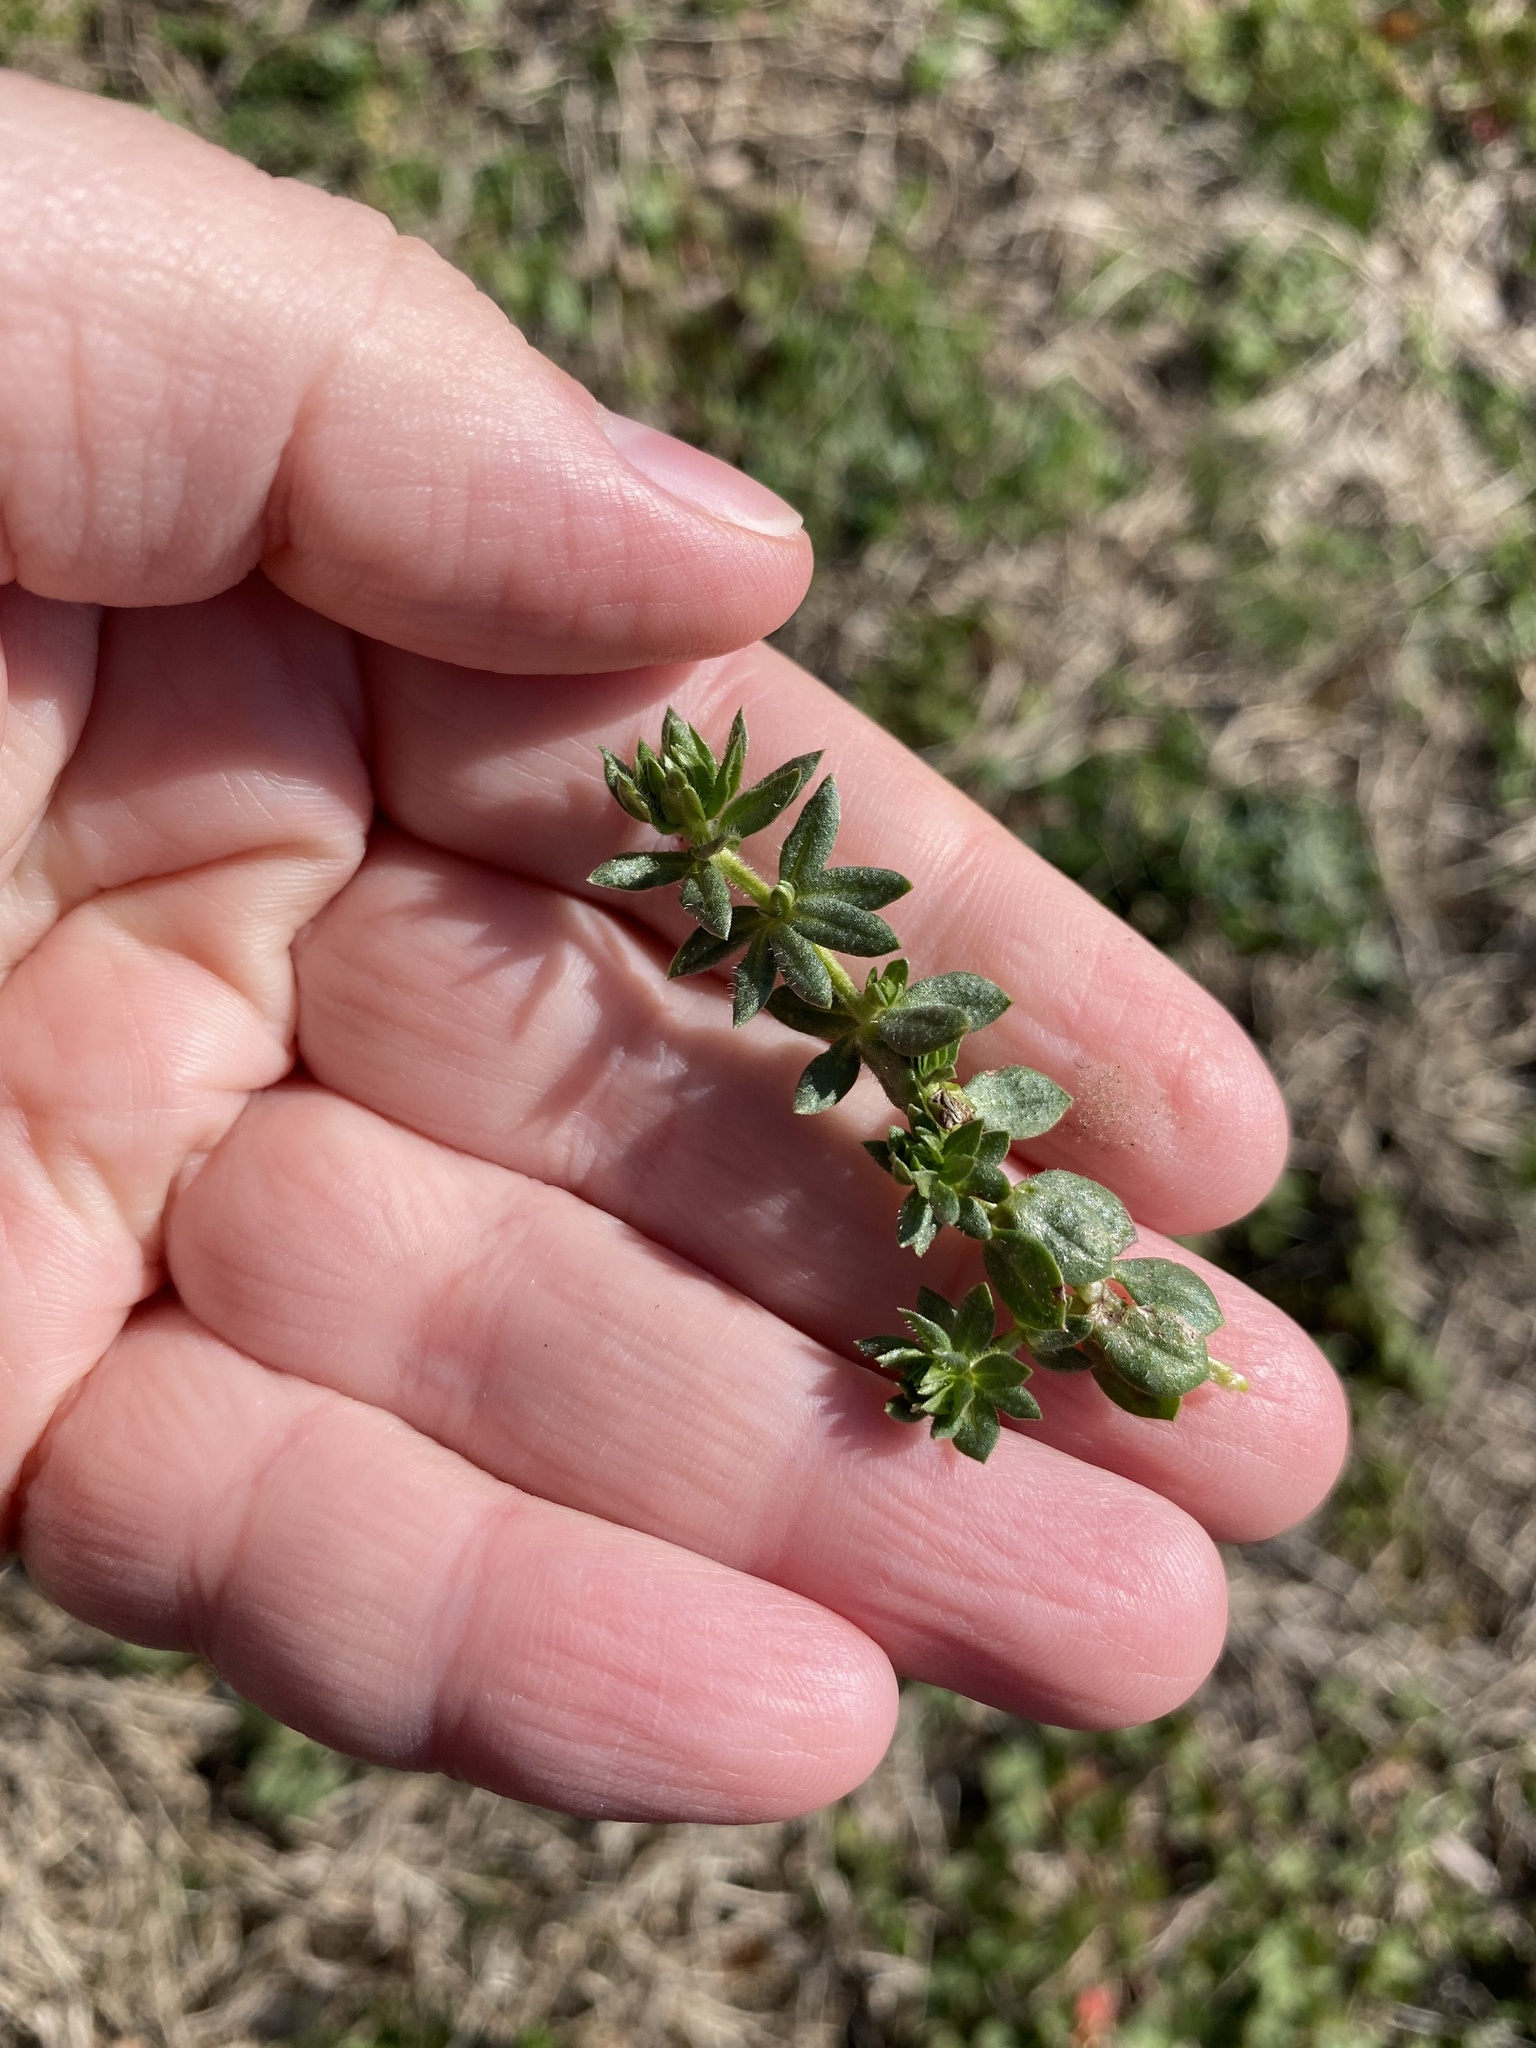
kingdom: Plantae
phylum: Tracheophyta
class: Magnoliopsida
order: Gentianales
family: Rubiaceae
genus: Sherardia
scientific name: Sherardia arvensis
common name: Field madder
